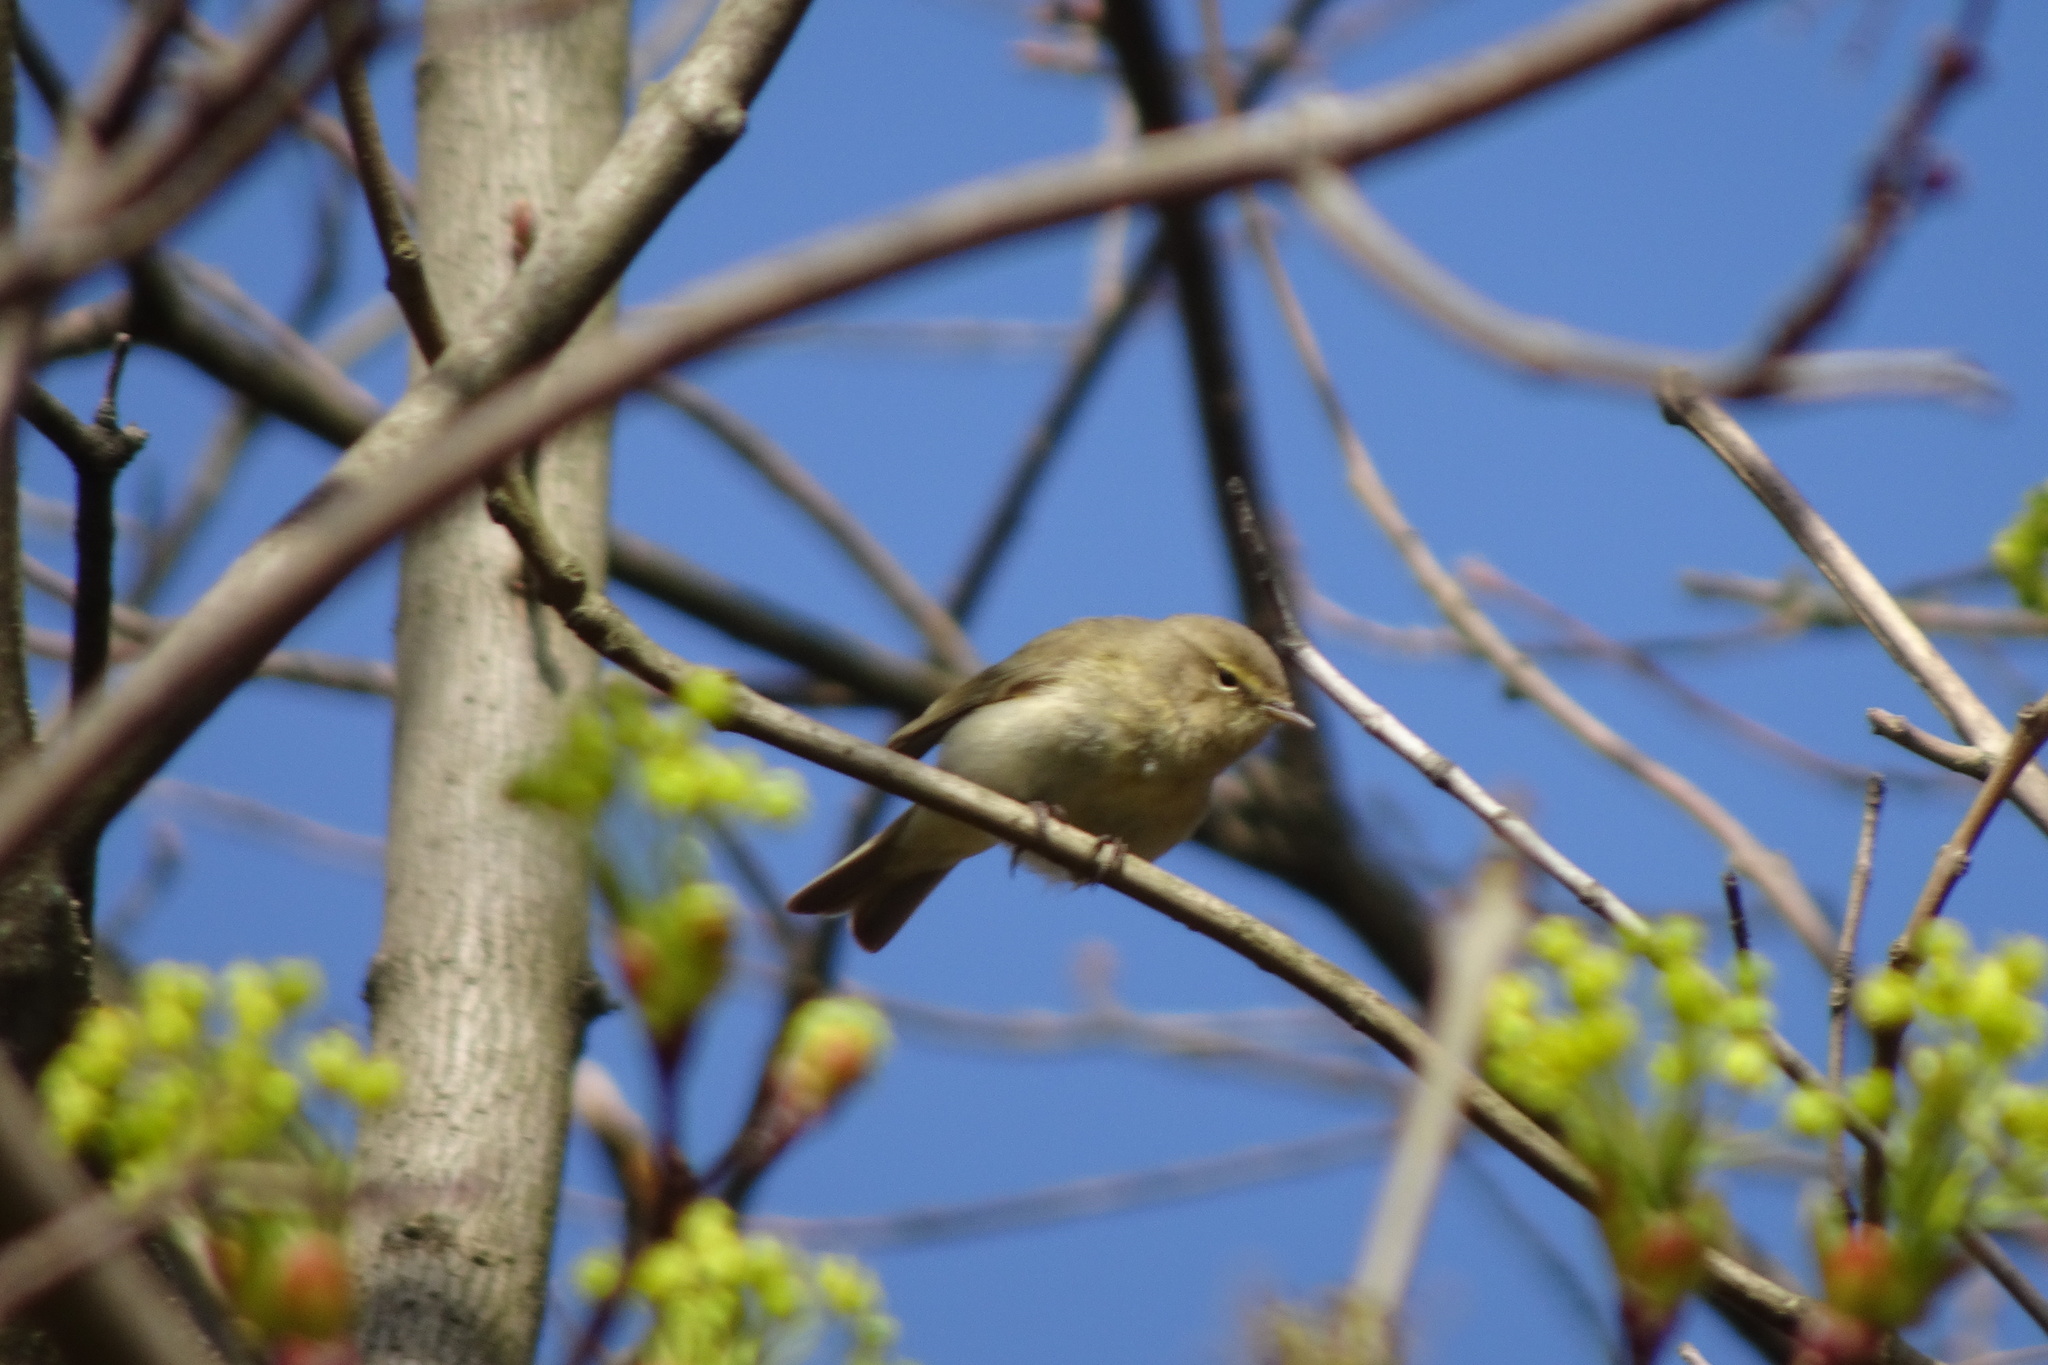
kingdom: Animalia
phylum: Chordata
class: Aves
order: Passeriformes
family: Phylloscopidae
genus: Phylloscopus
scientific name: Phylloscopus collybita
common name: Common chiffchaff
